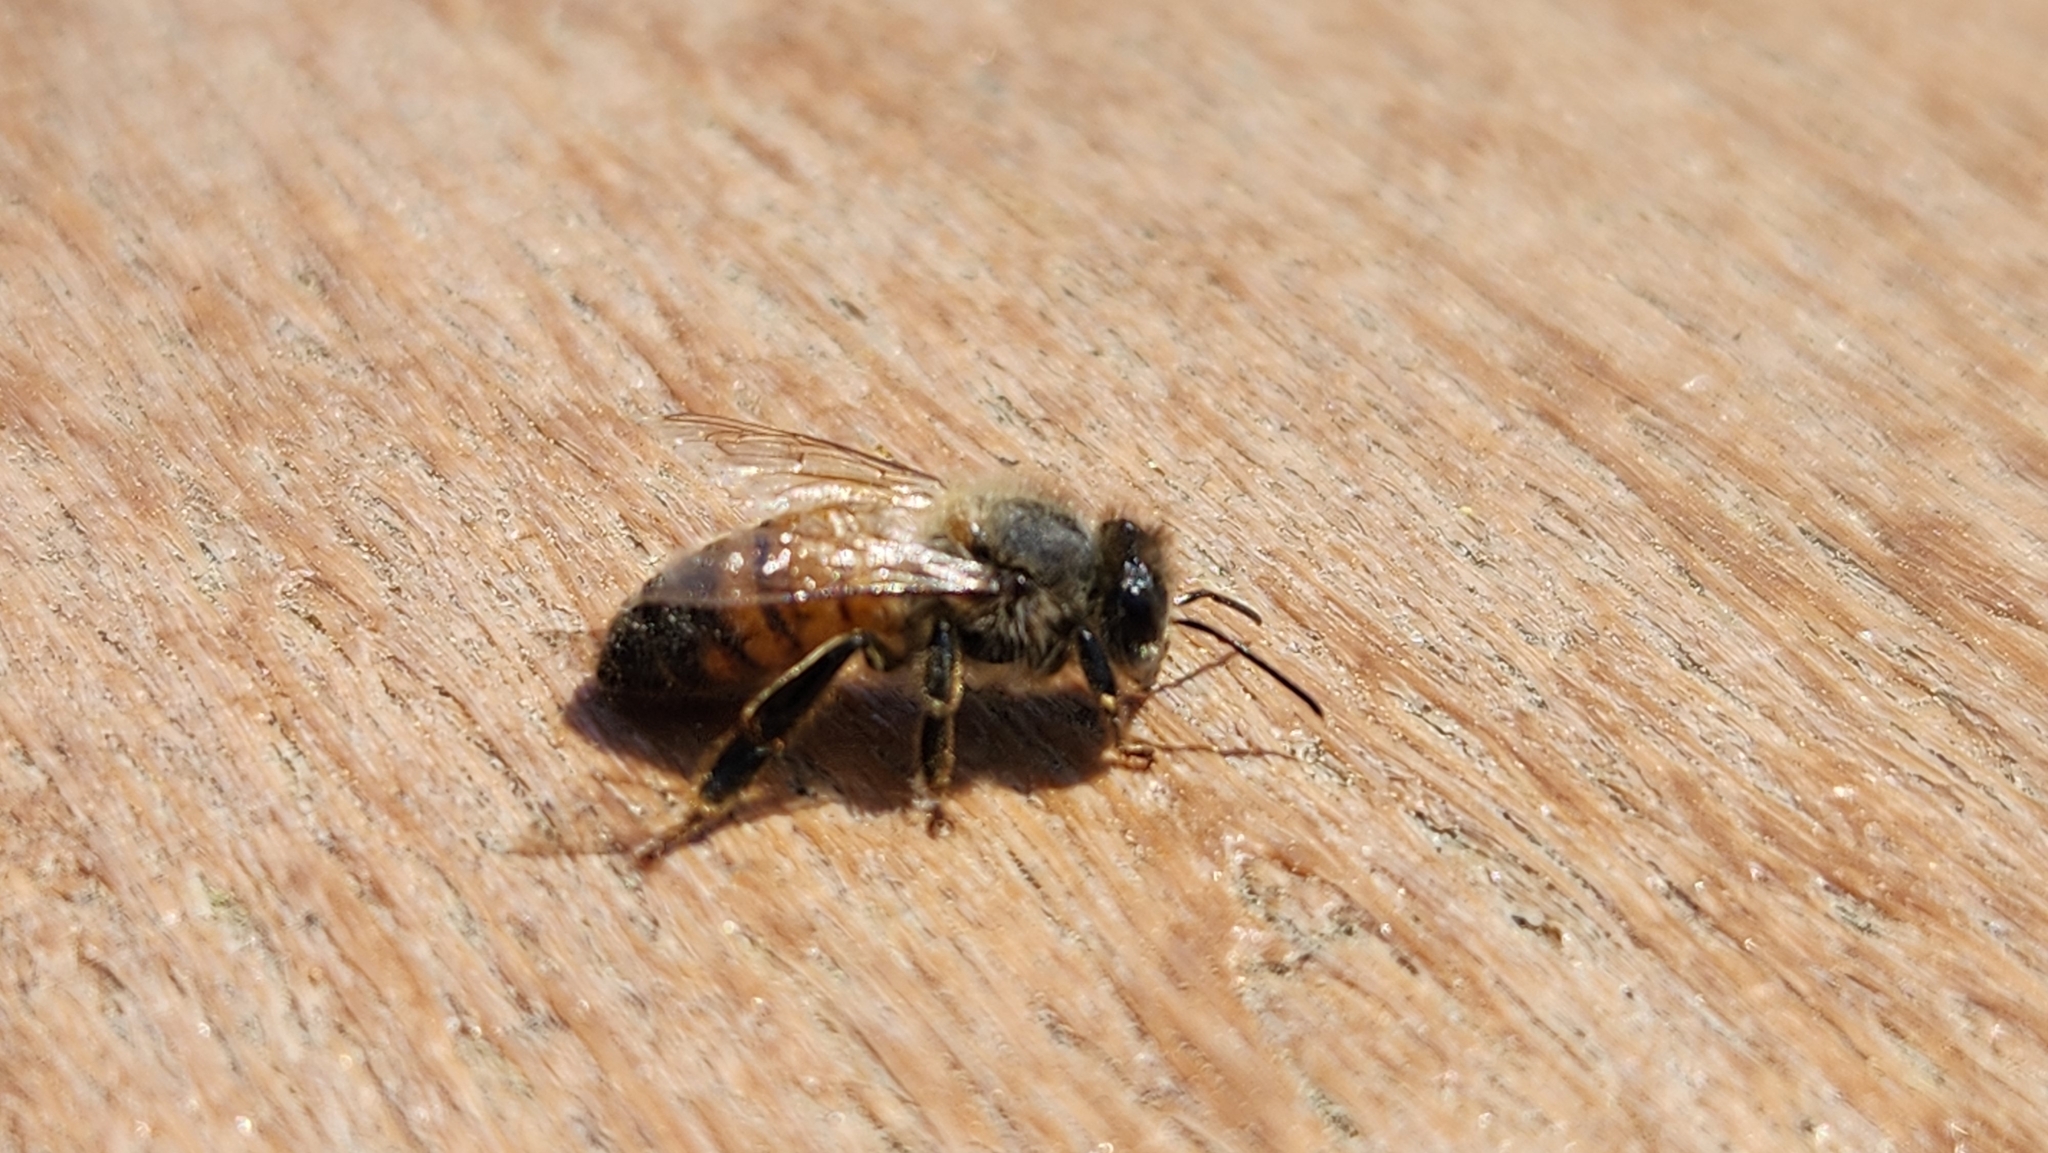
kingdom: Animalia
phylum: Arthropoda
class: Insecta
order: Hymenoptera
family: Apidae
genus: Apis
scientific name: Apis mellifera
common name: Honey bee
